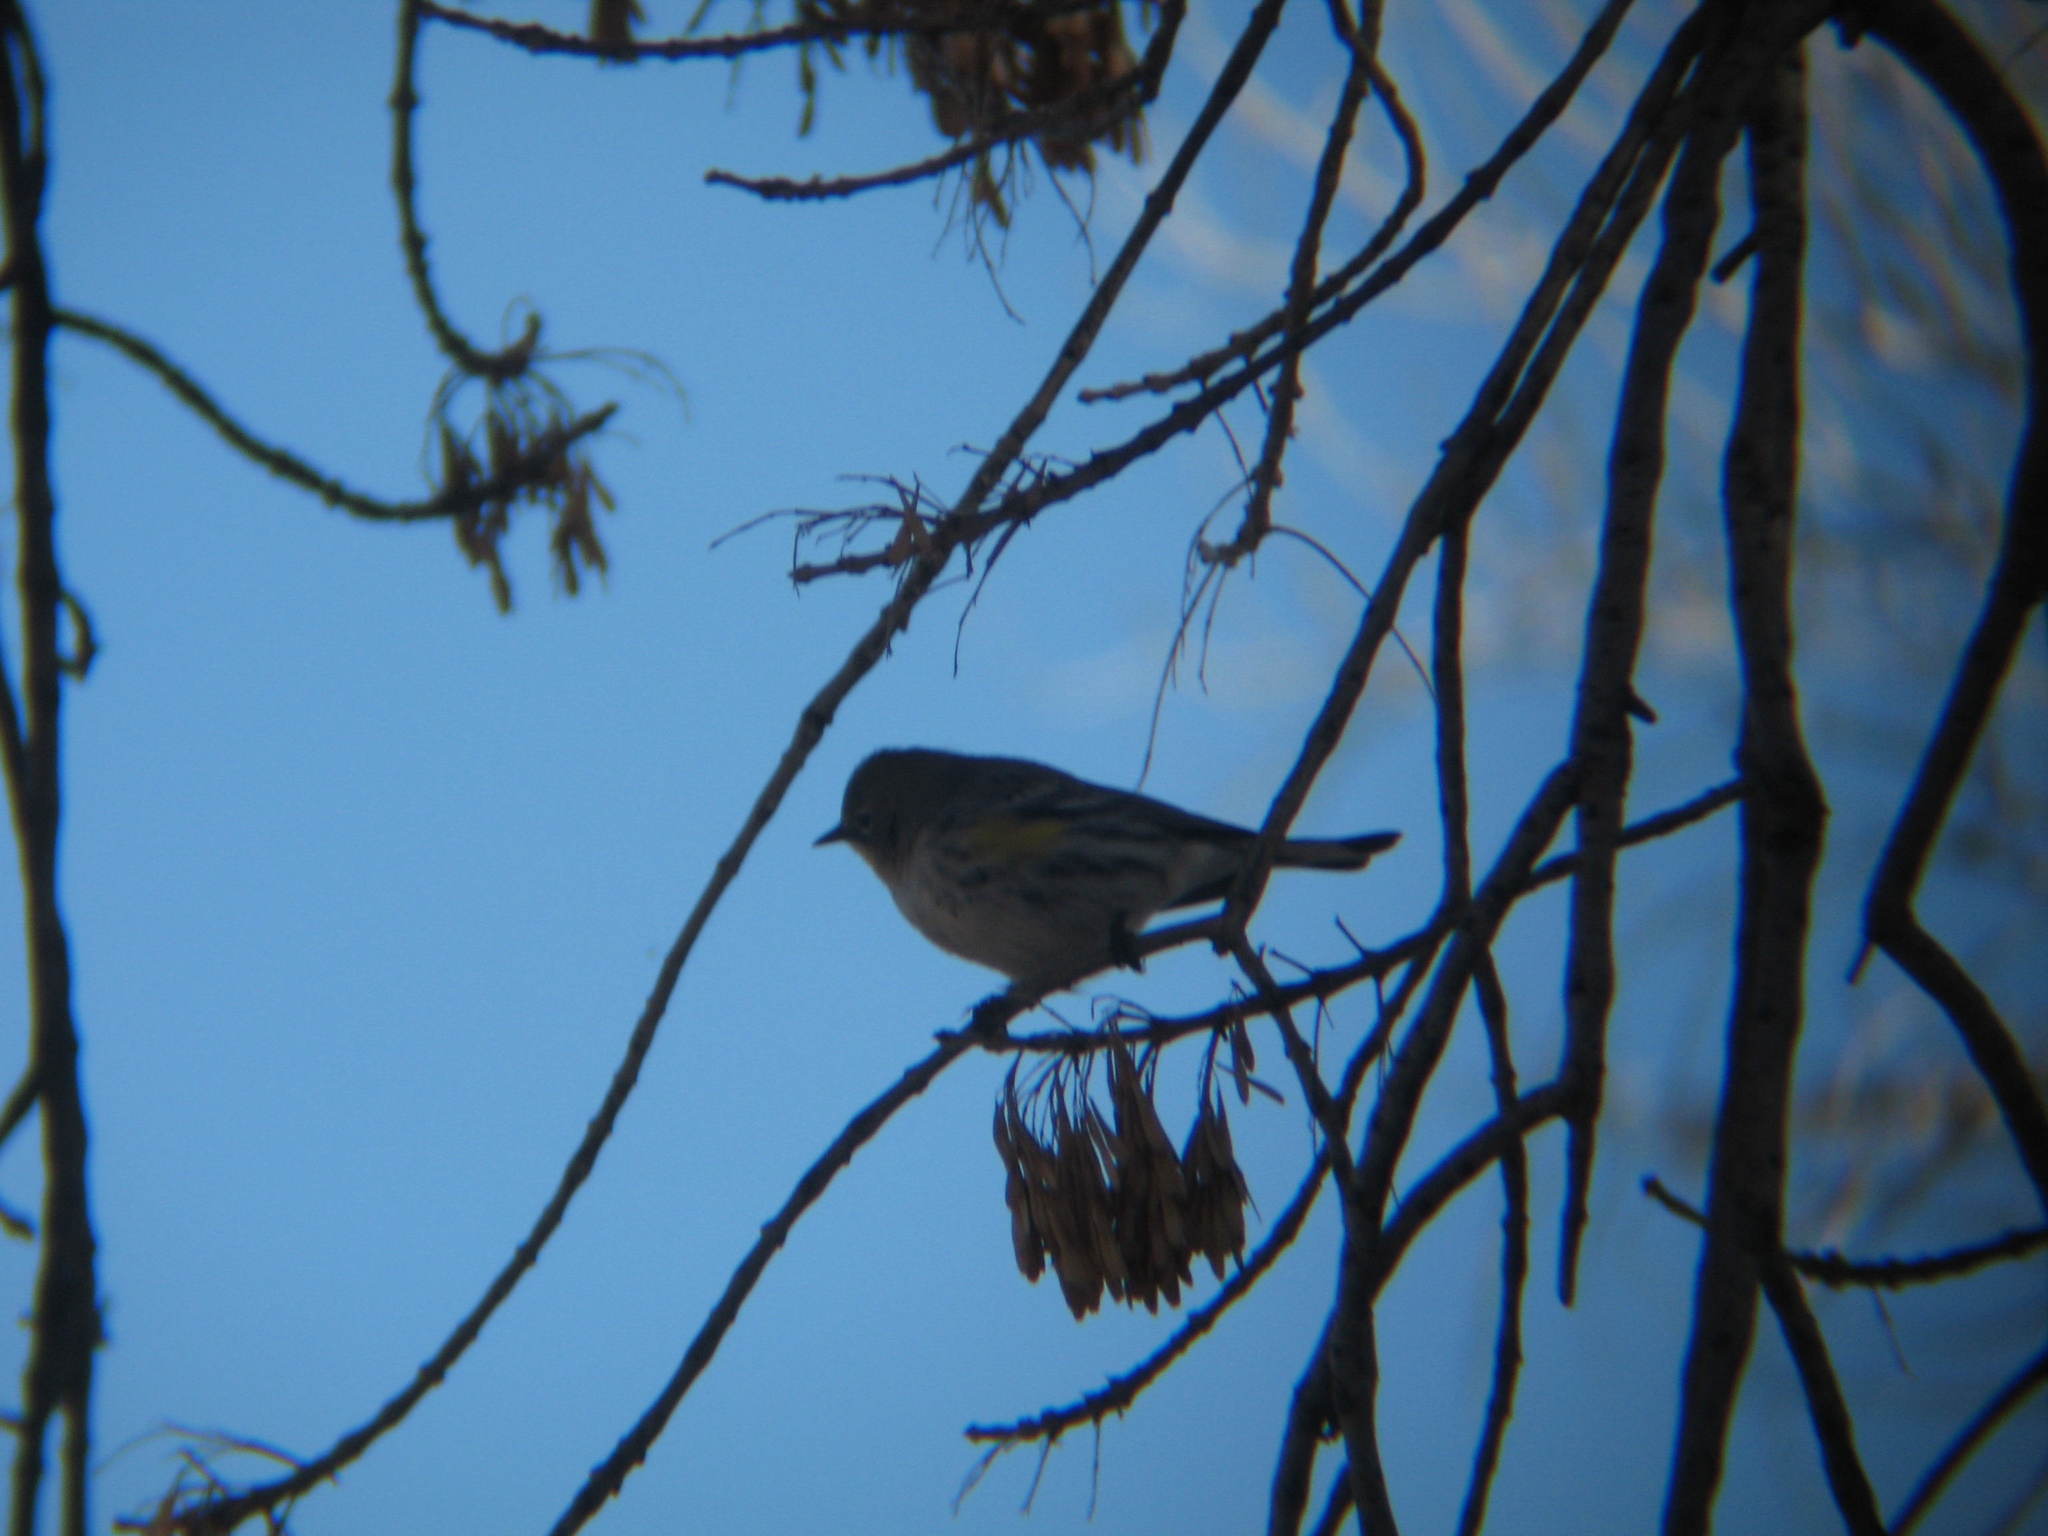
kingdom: Animalia
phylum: Chordata
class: Aves
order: Passeriformes
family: Parulidae
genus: Setophaga
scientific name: Setophaga coronata
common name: Myrtle warbler
